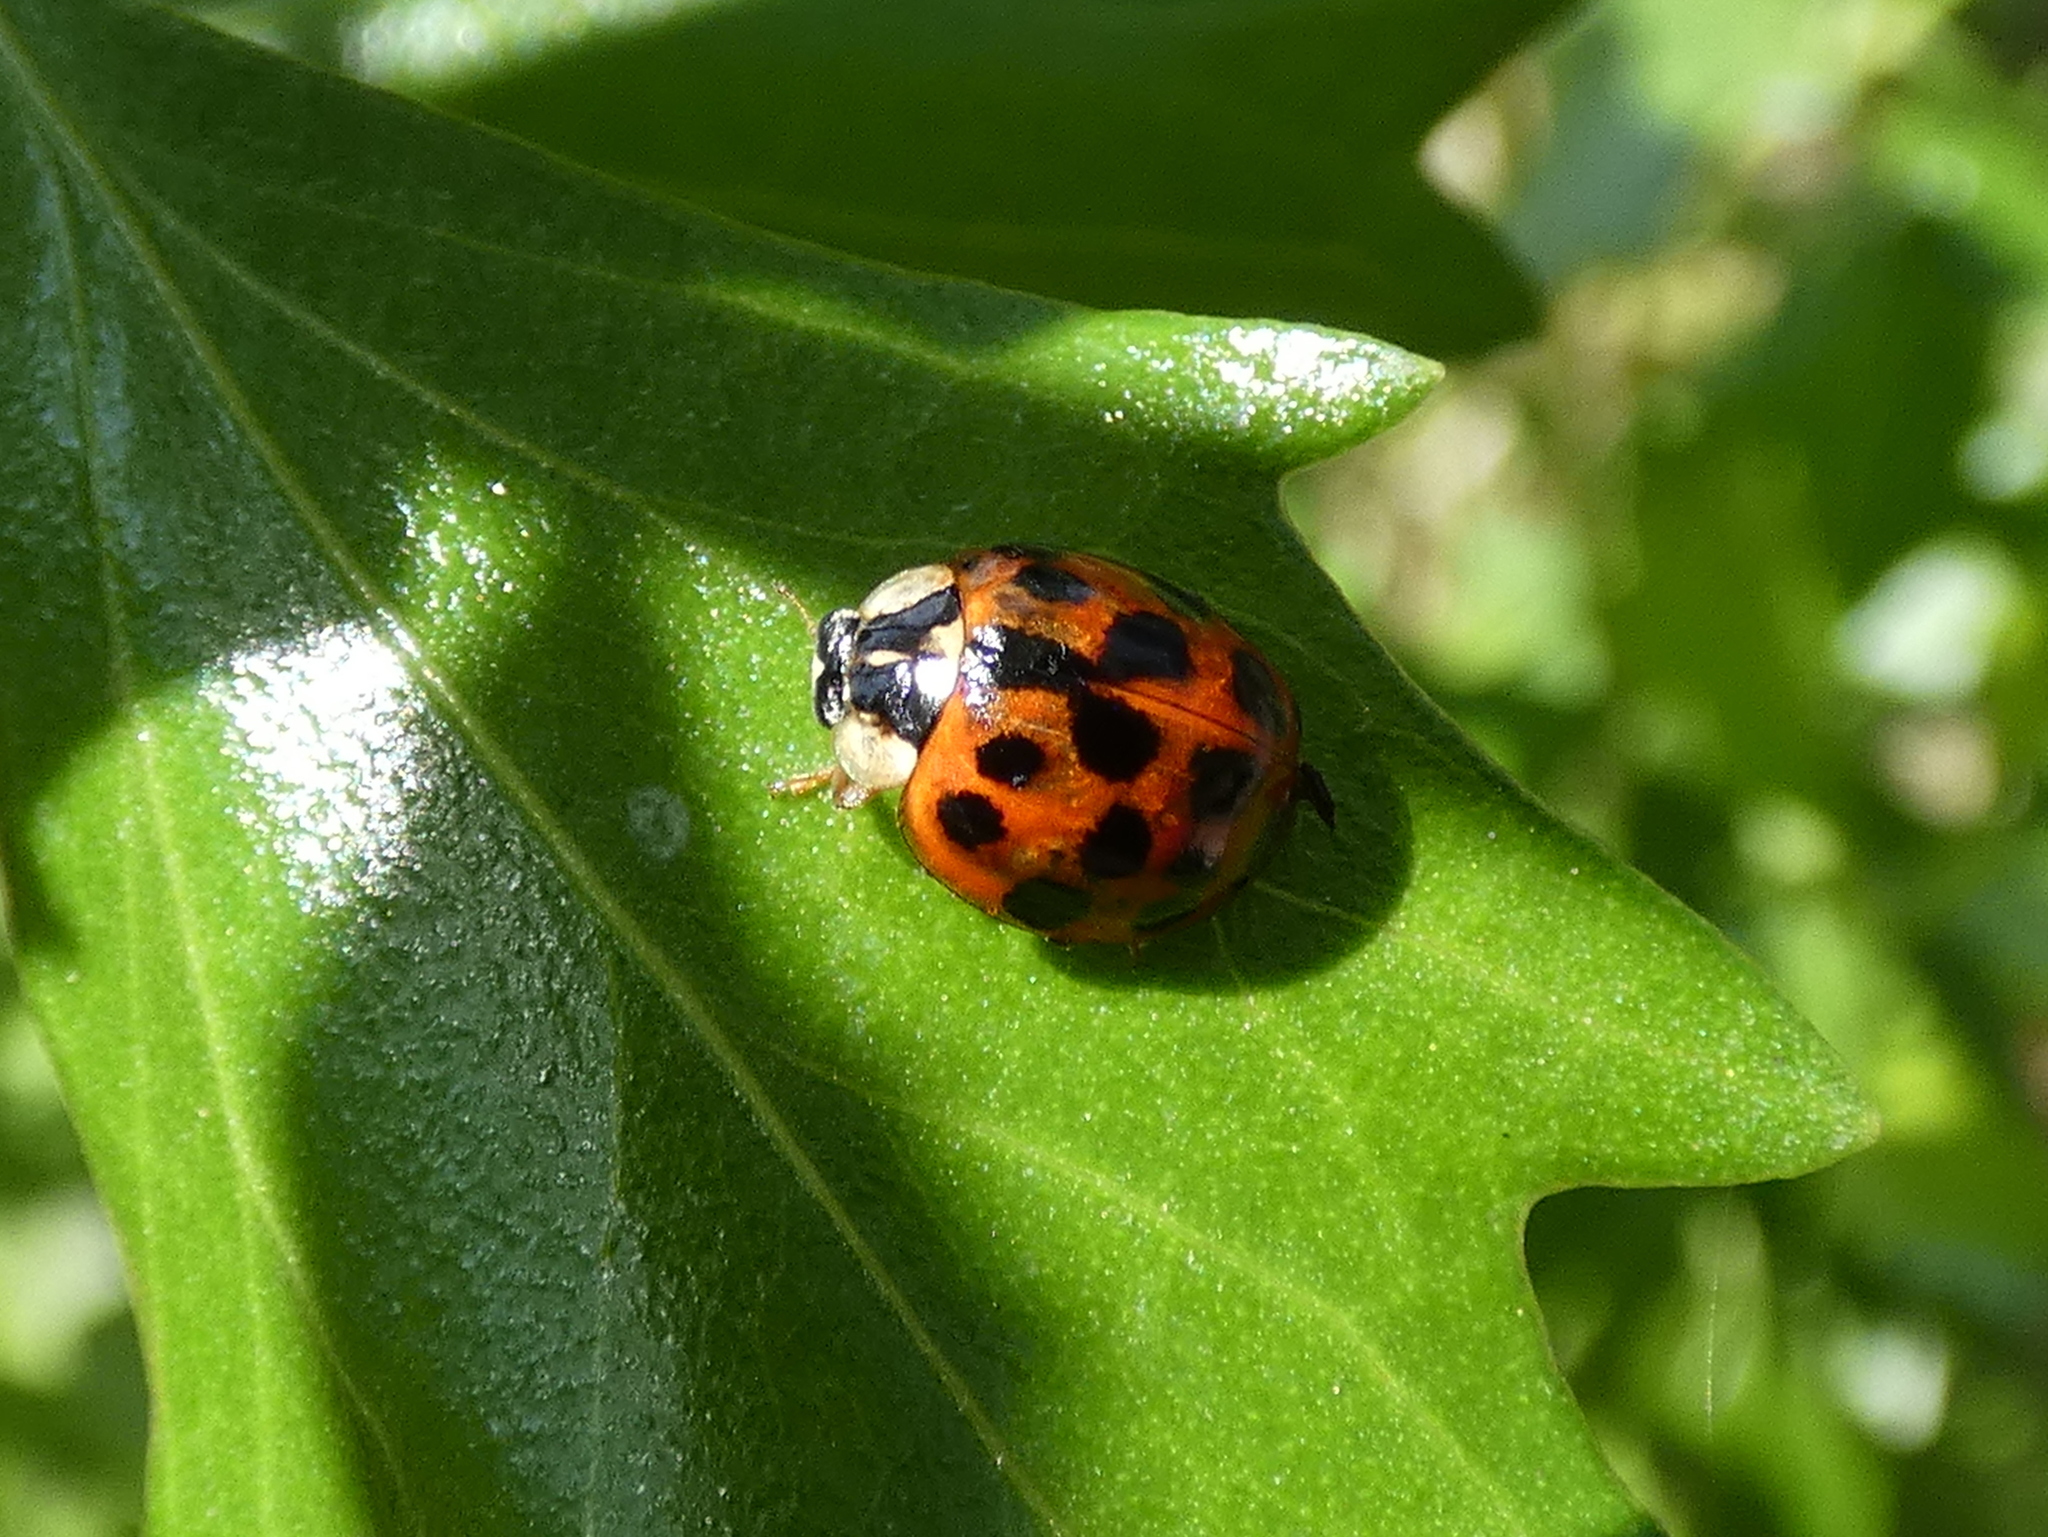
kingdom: Animalia
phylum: Arthropoda
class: Insecta
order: Coleoptera
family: Coccinellidae
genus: Harmonia
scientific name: Harmonia axyridis
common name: Harlequin ladybird
